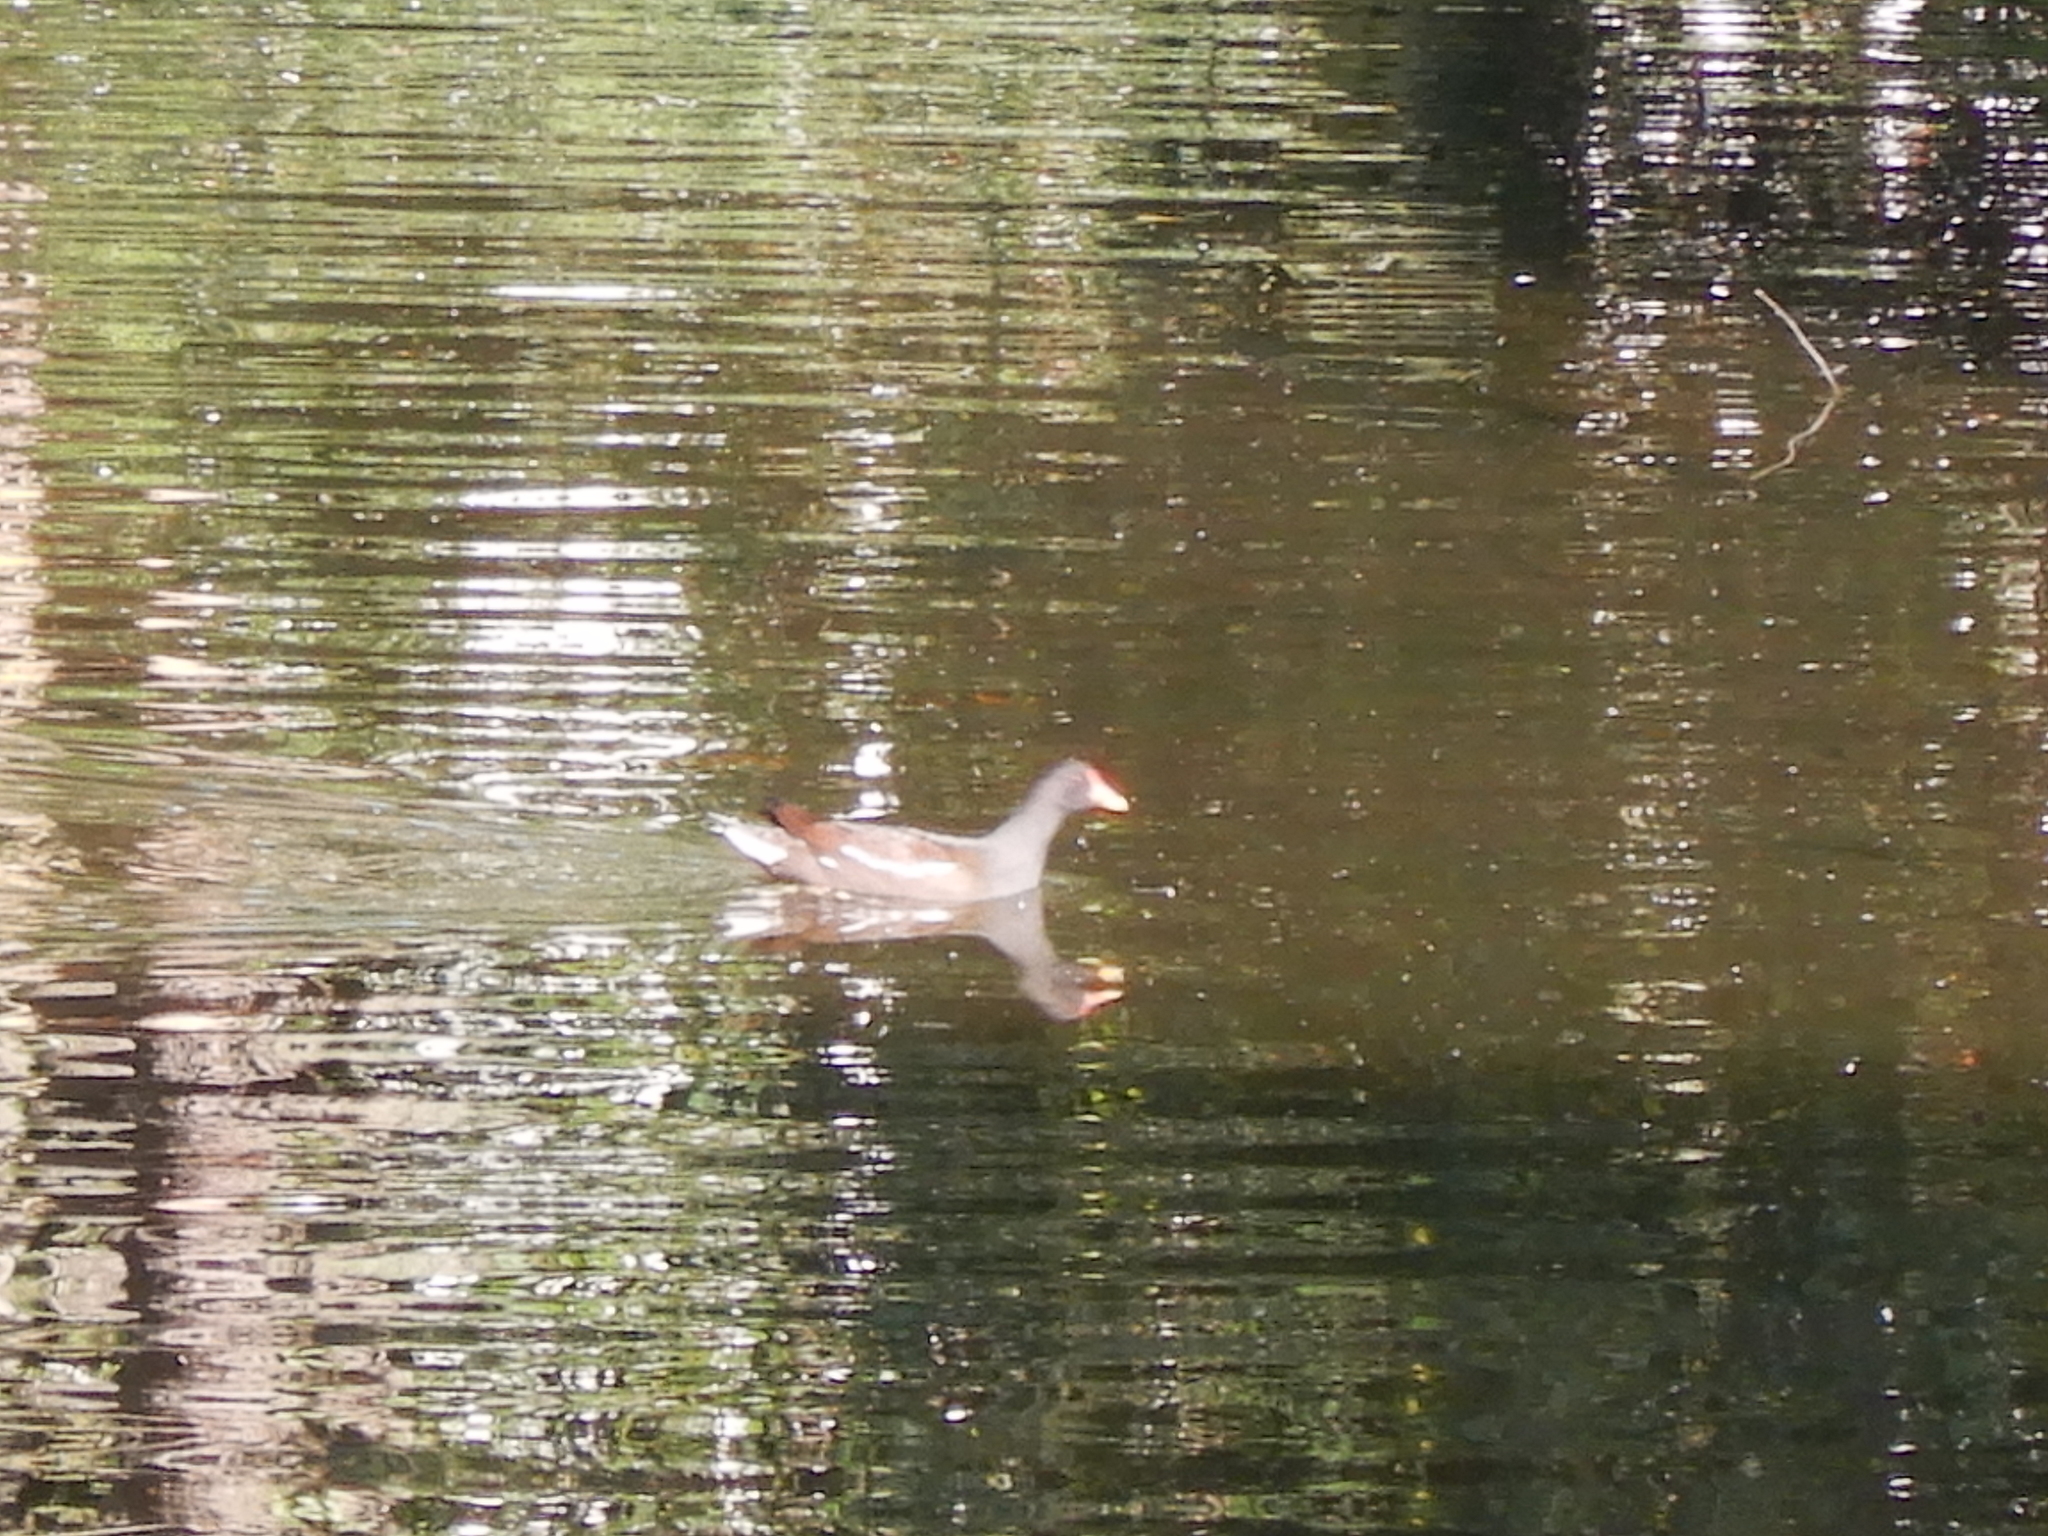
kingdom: Animalia
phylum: Chordata
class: Aves
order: Gruiformes
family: Rallidae
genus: Gallinula
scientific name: Gallinula chloropus
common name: Common moorhen
